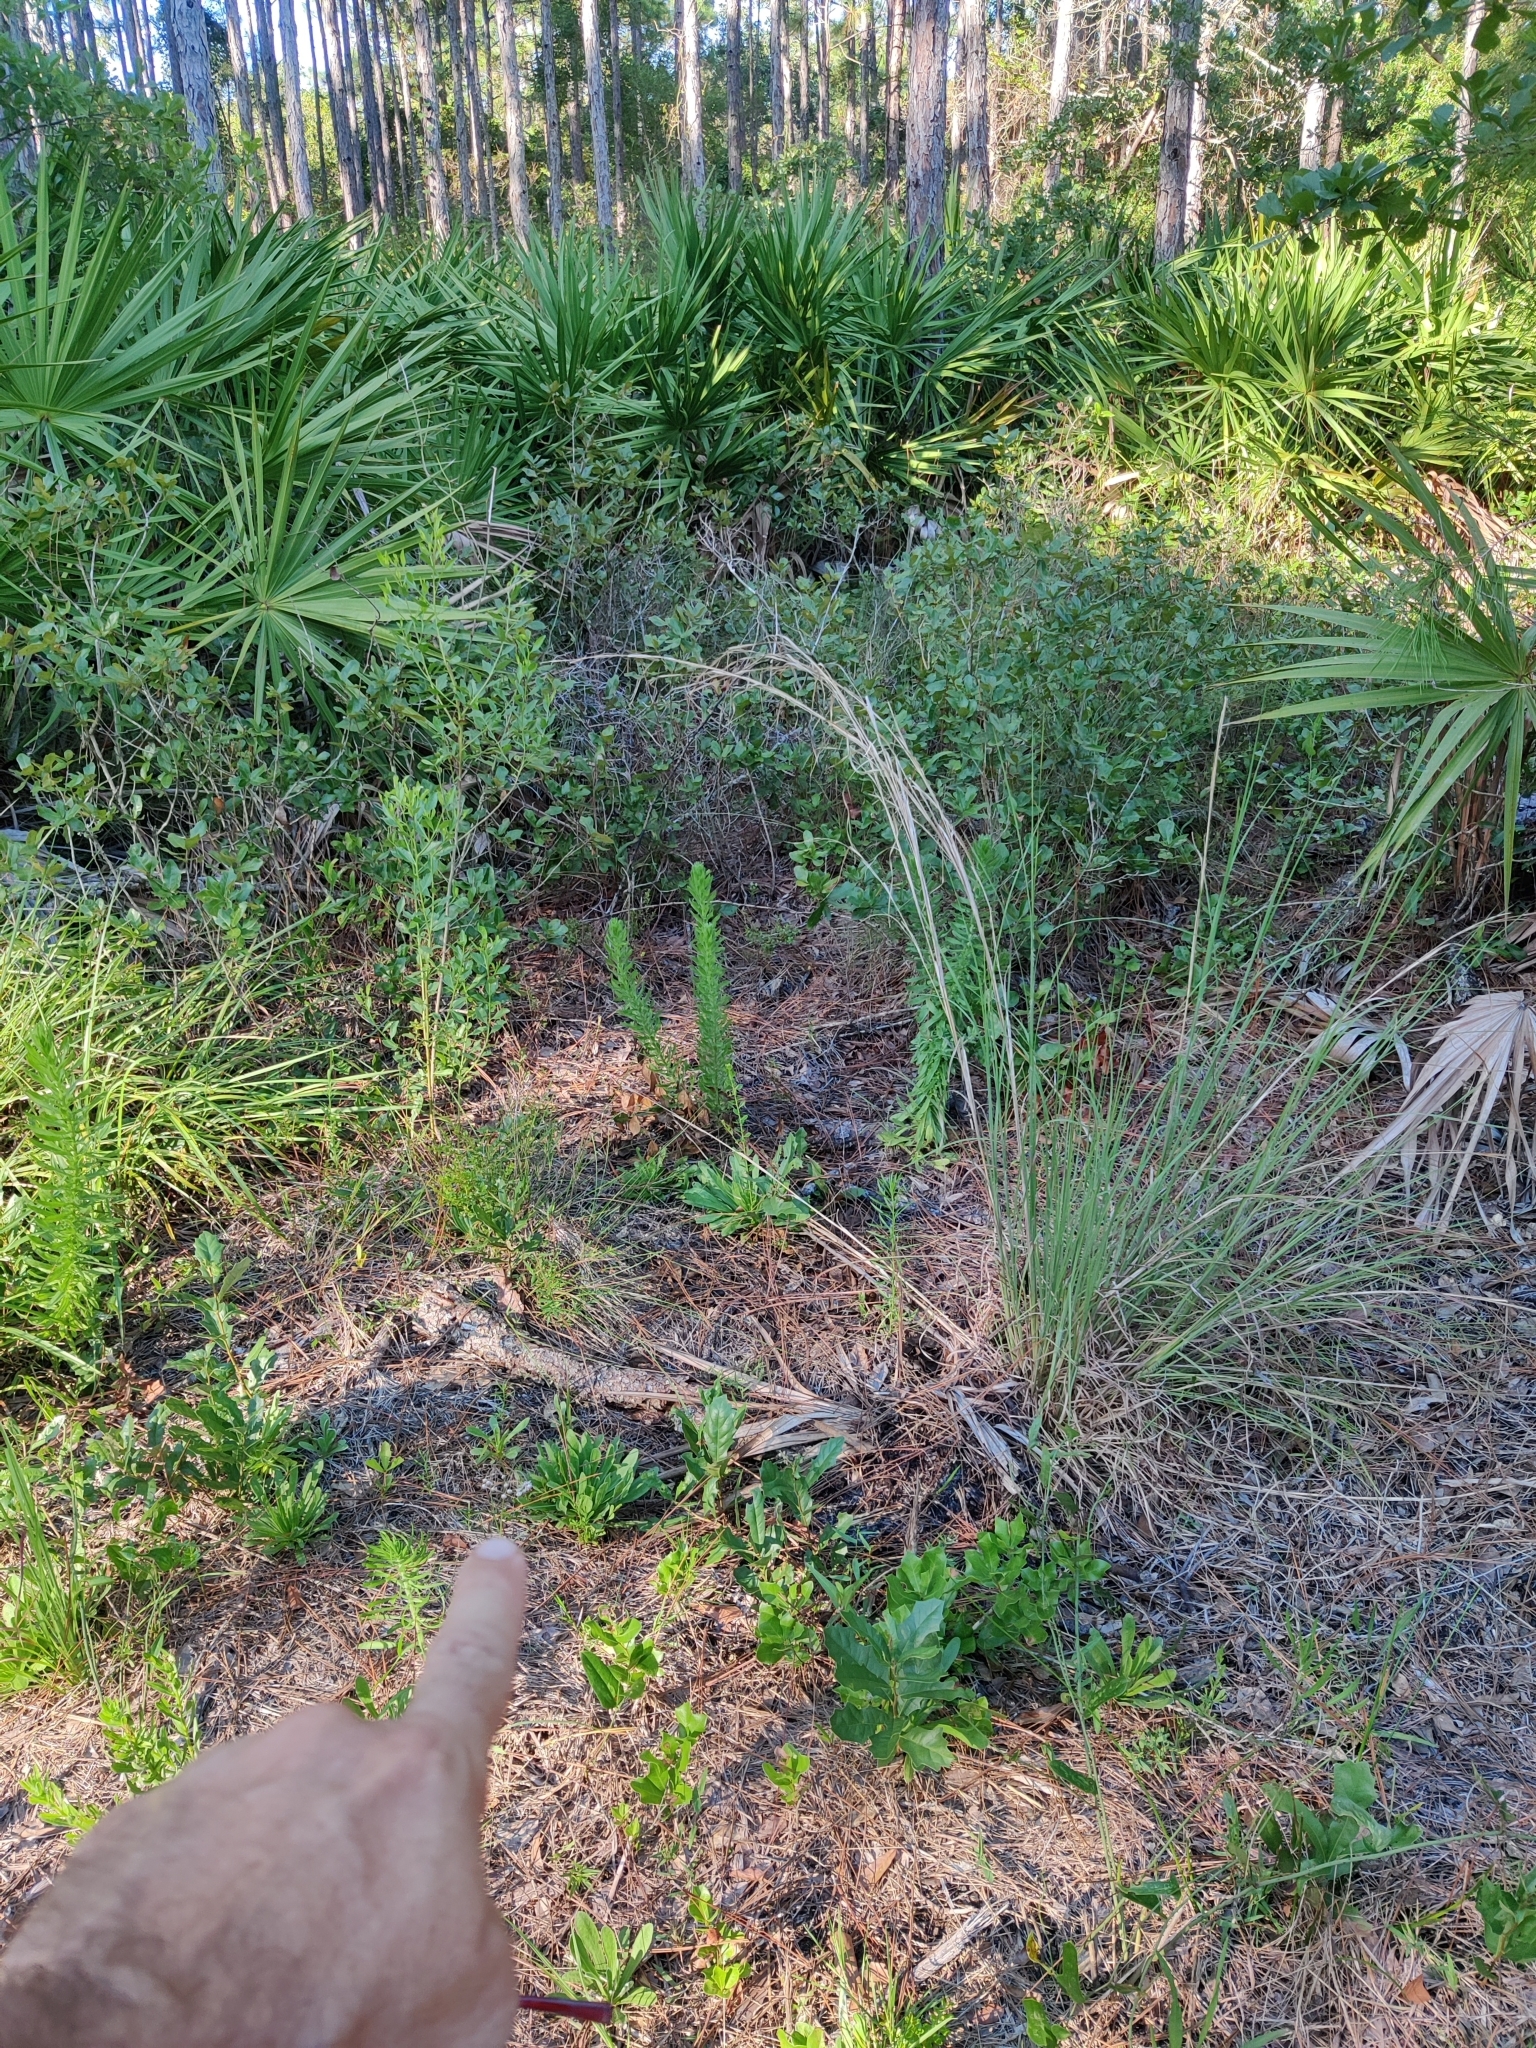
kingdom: Plantae
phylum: Tracheophyta
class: Magnoliopsida
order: Gentianales
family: Apocynaceae
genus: Asclepias
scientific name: Asclepias cinerea
